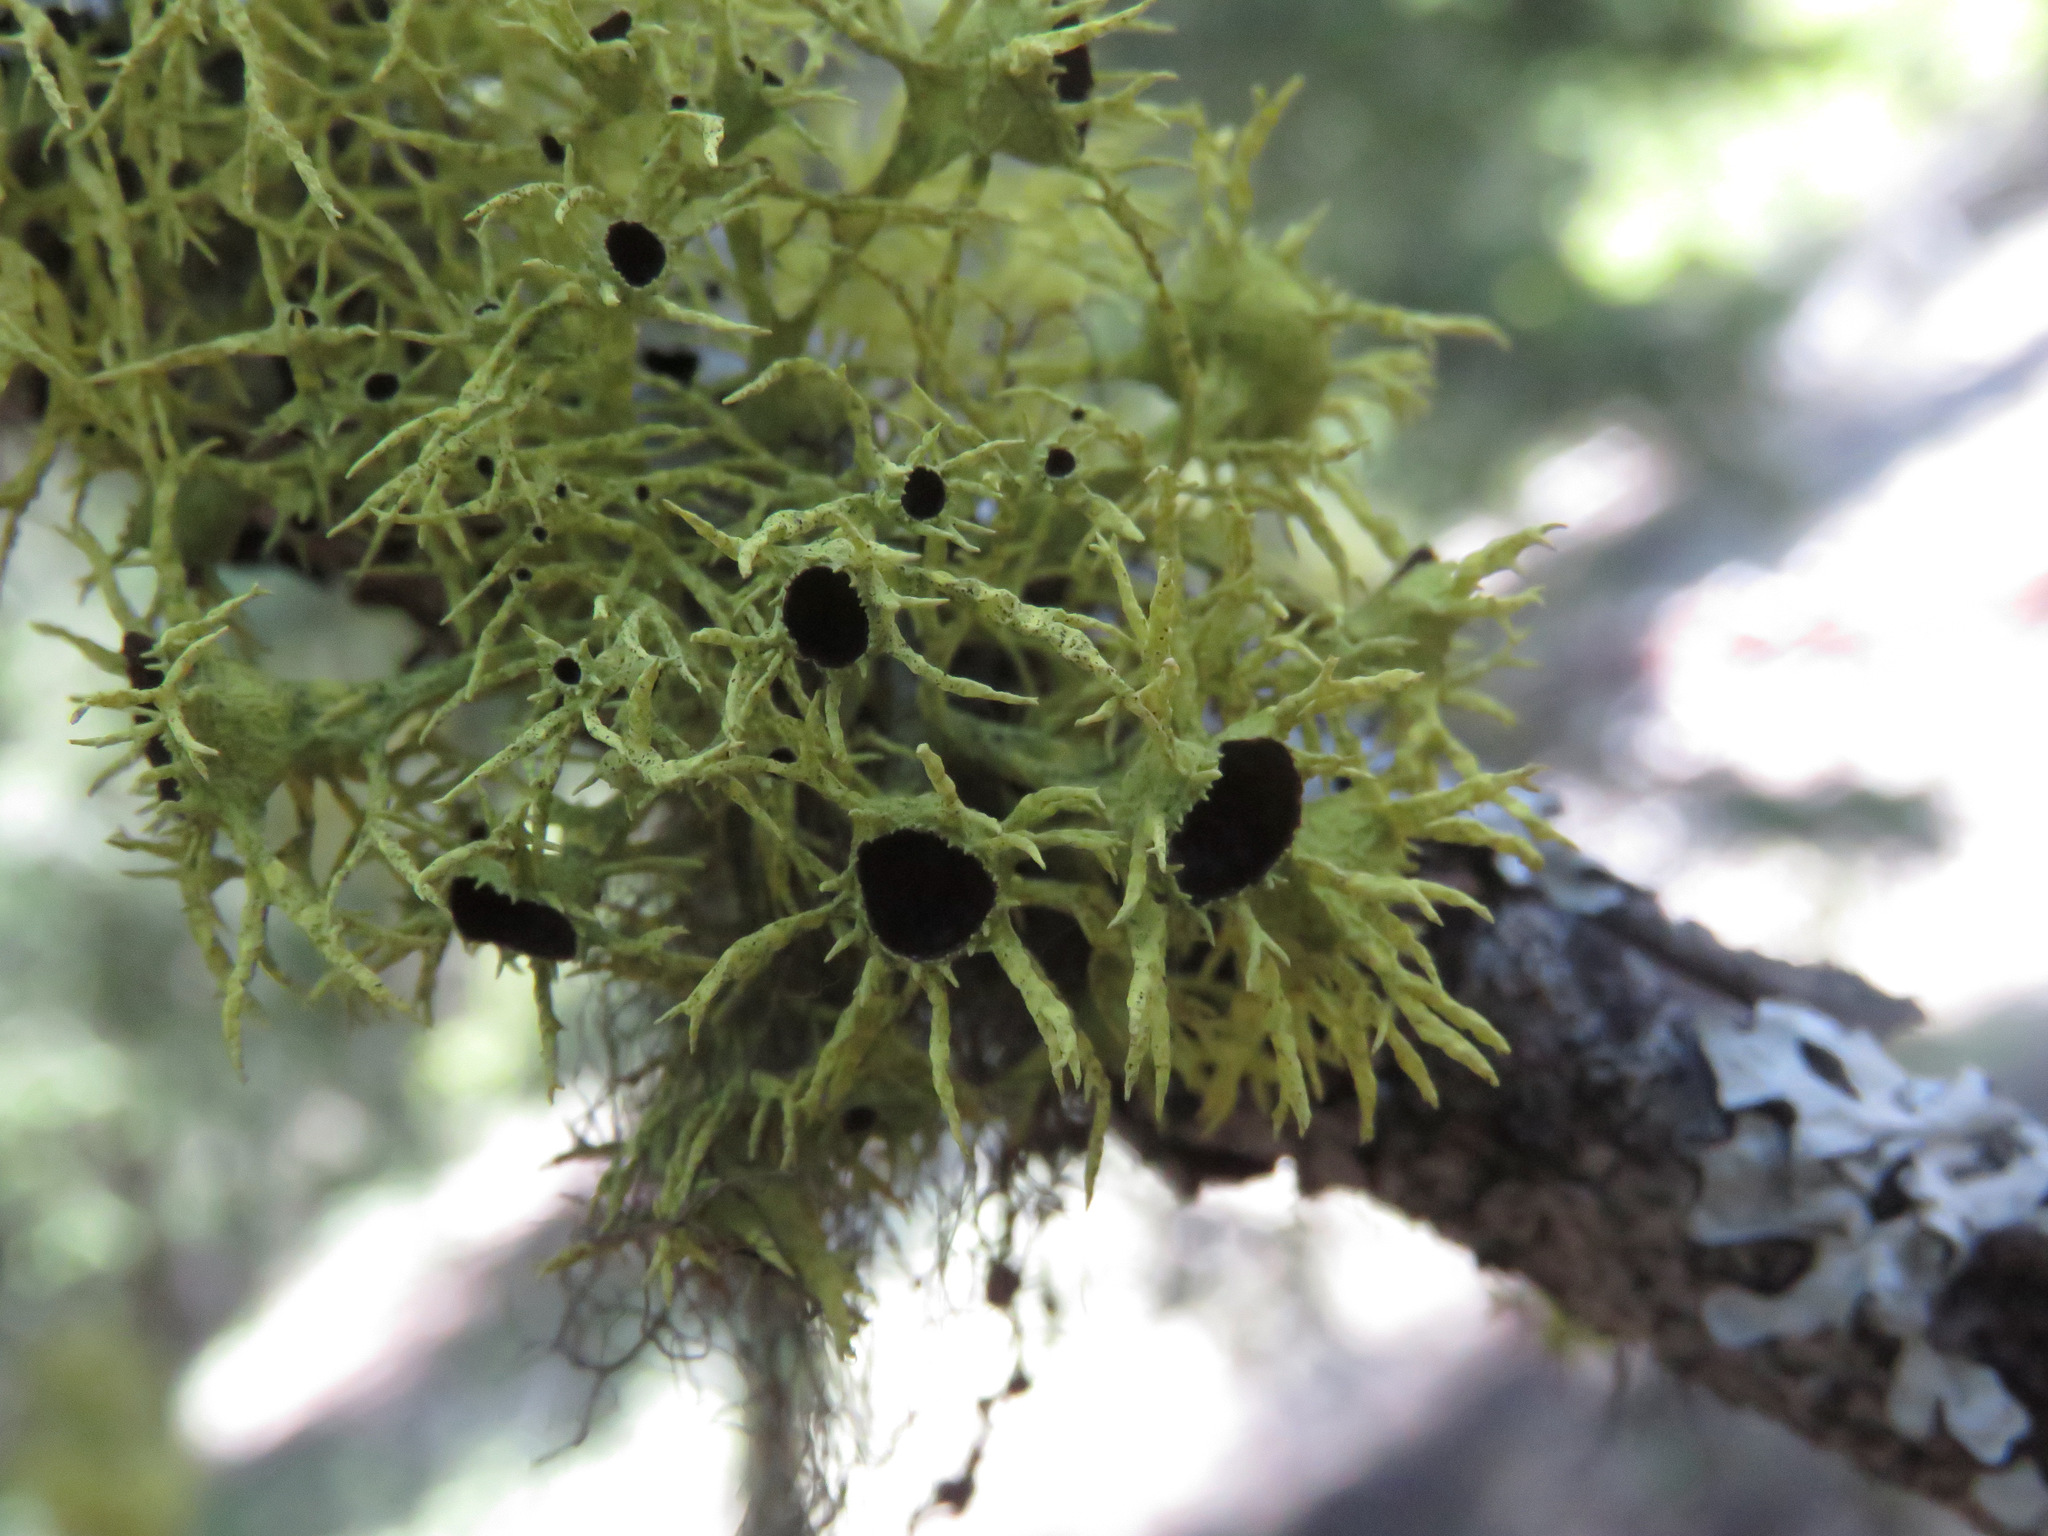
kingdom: Fungi
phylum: Ascomycota
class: Lecanoromycetes
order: Lecanorales
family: Parmeliaceae
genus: Letharia
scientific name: Letharia columbiana
